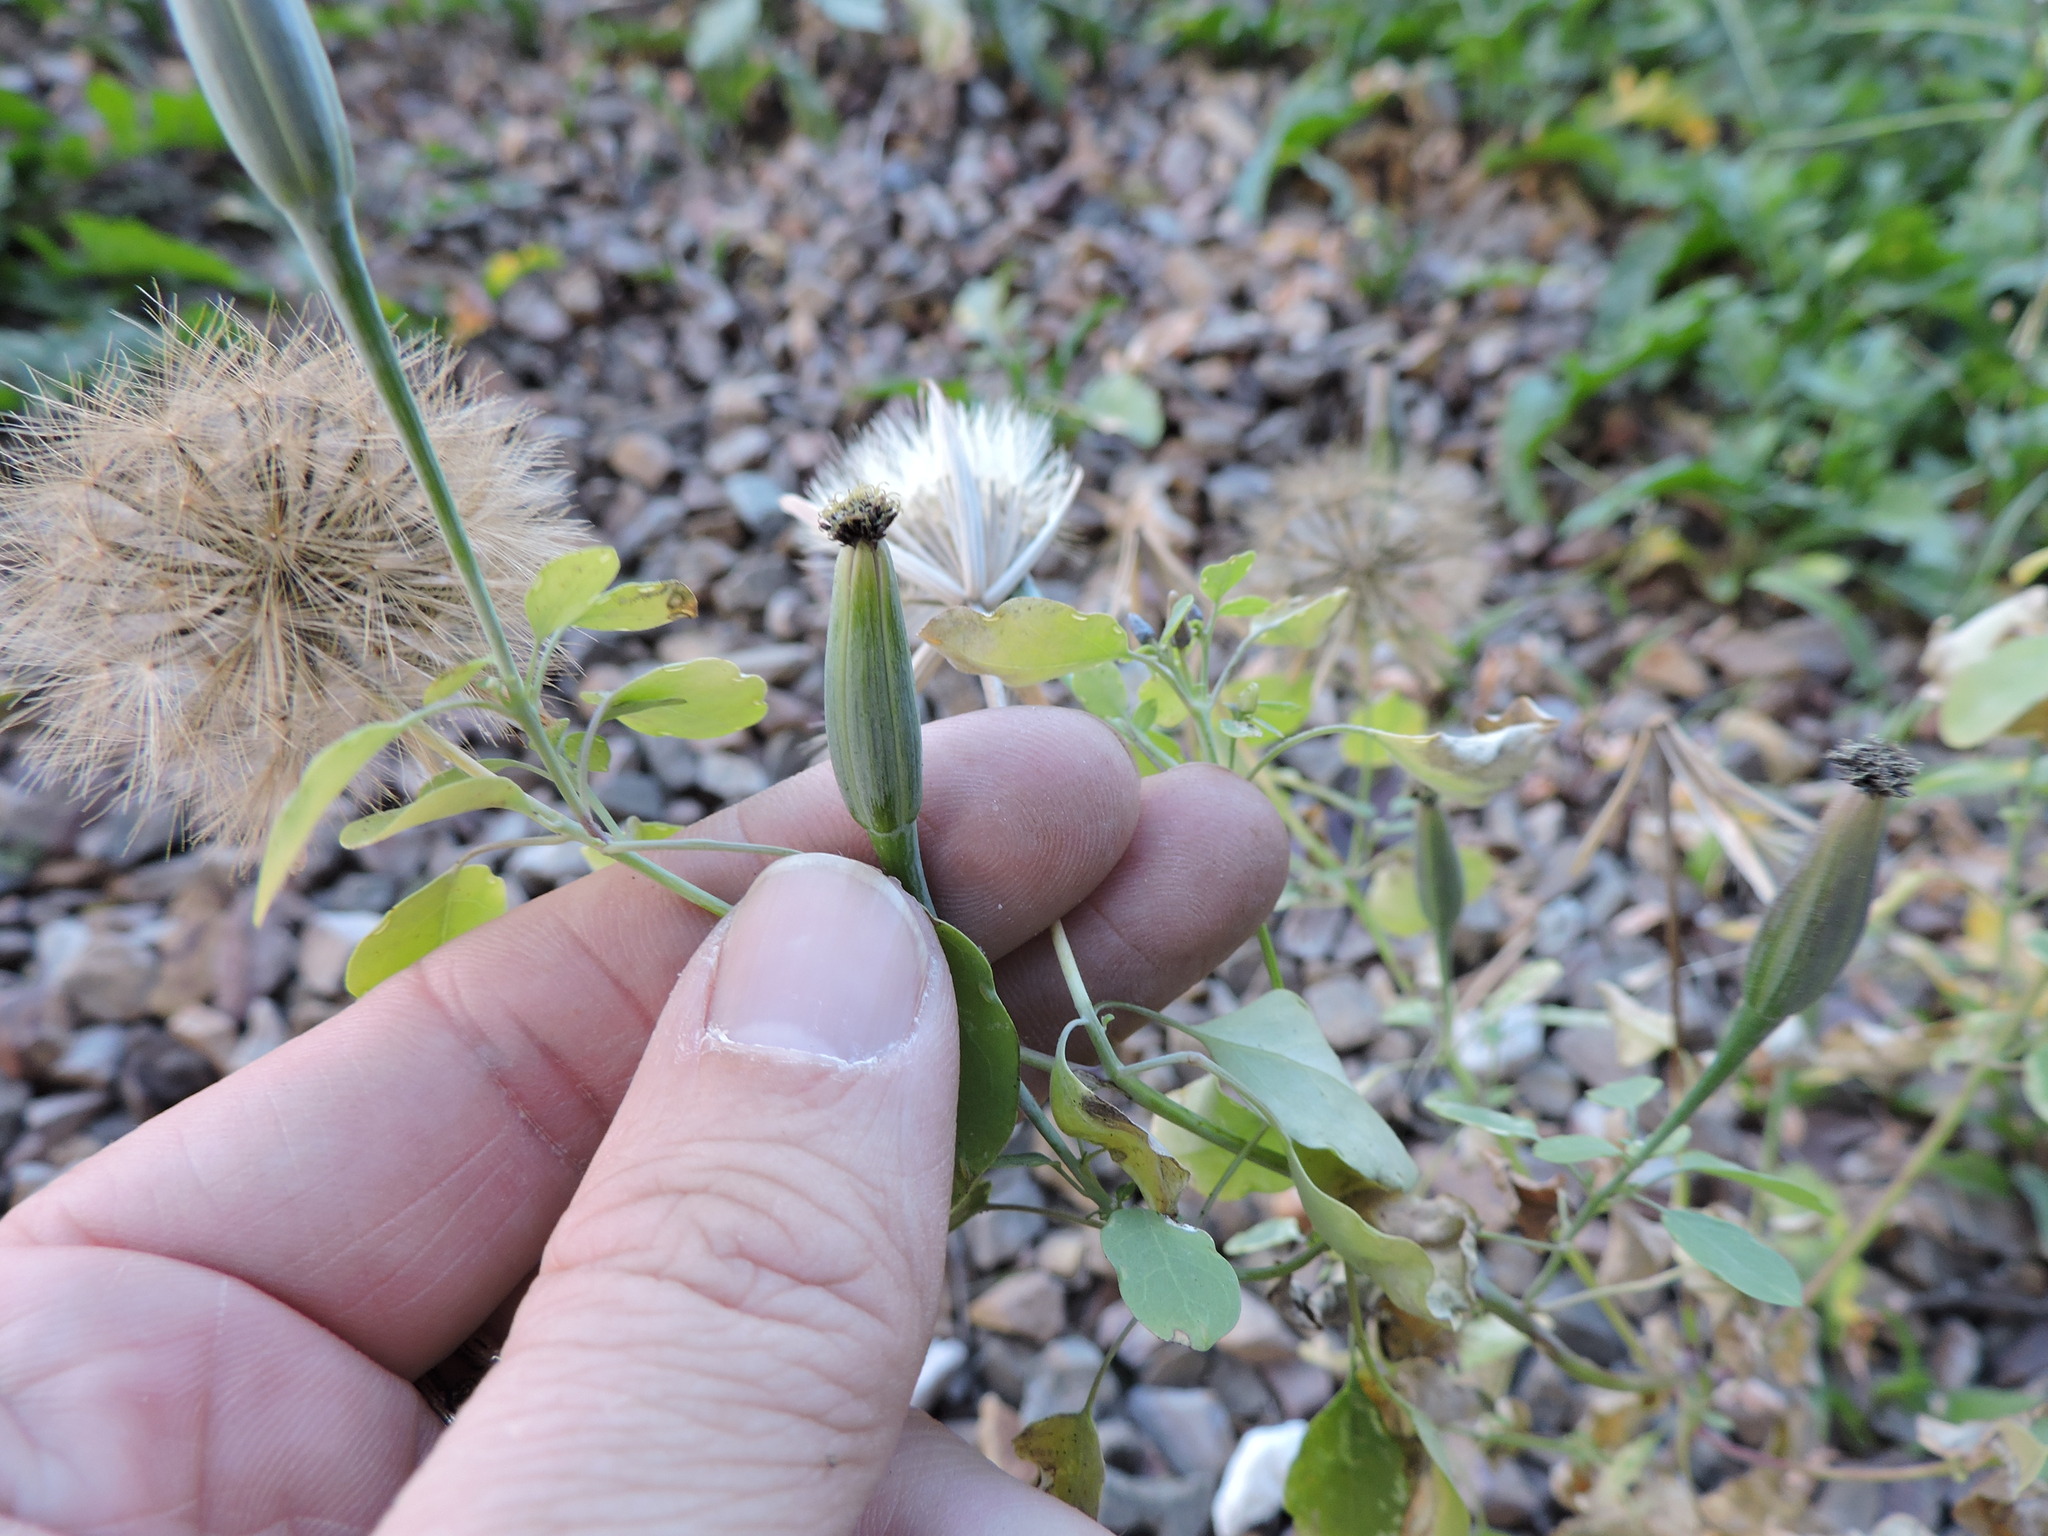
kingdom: Plantae
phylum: Tracheophyta
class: Magnoliopsida
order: Asterales
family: Asteraceae
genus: Porophyllum
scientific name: Porophyllum ruderale
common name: Yerba porosa
